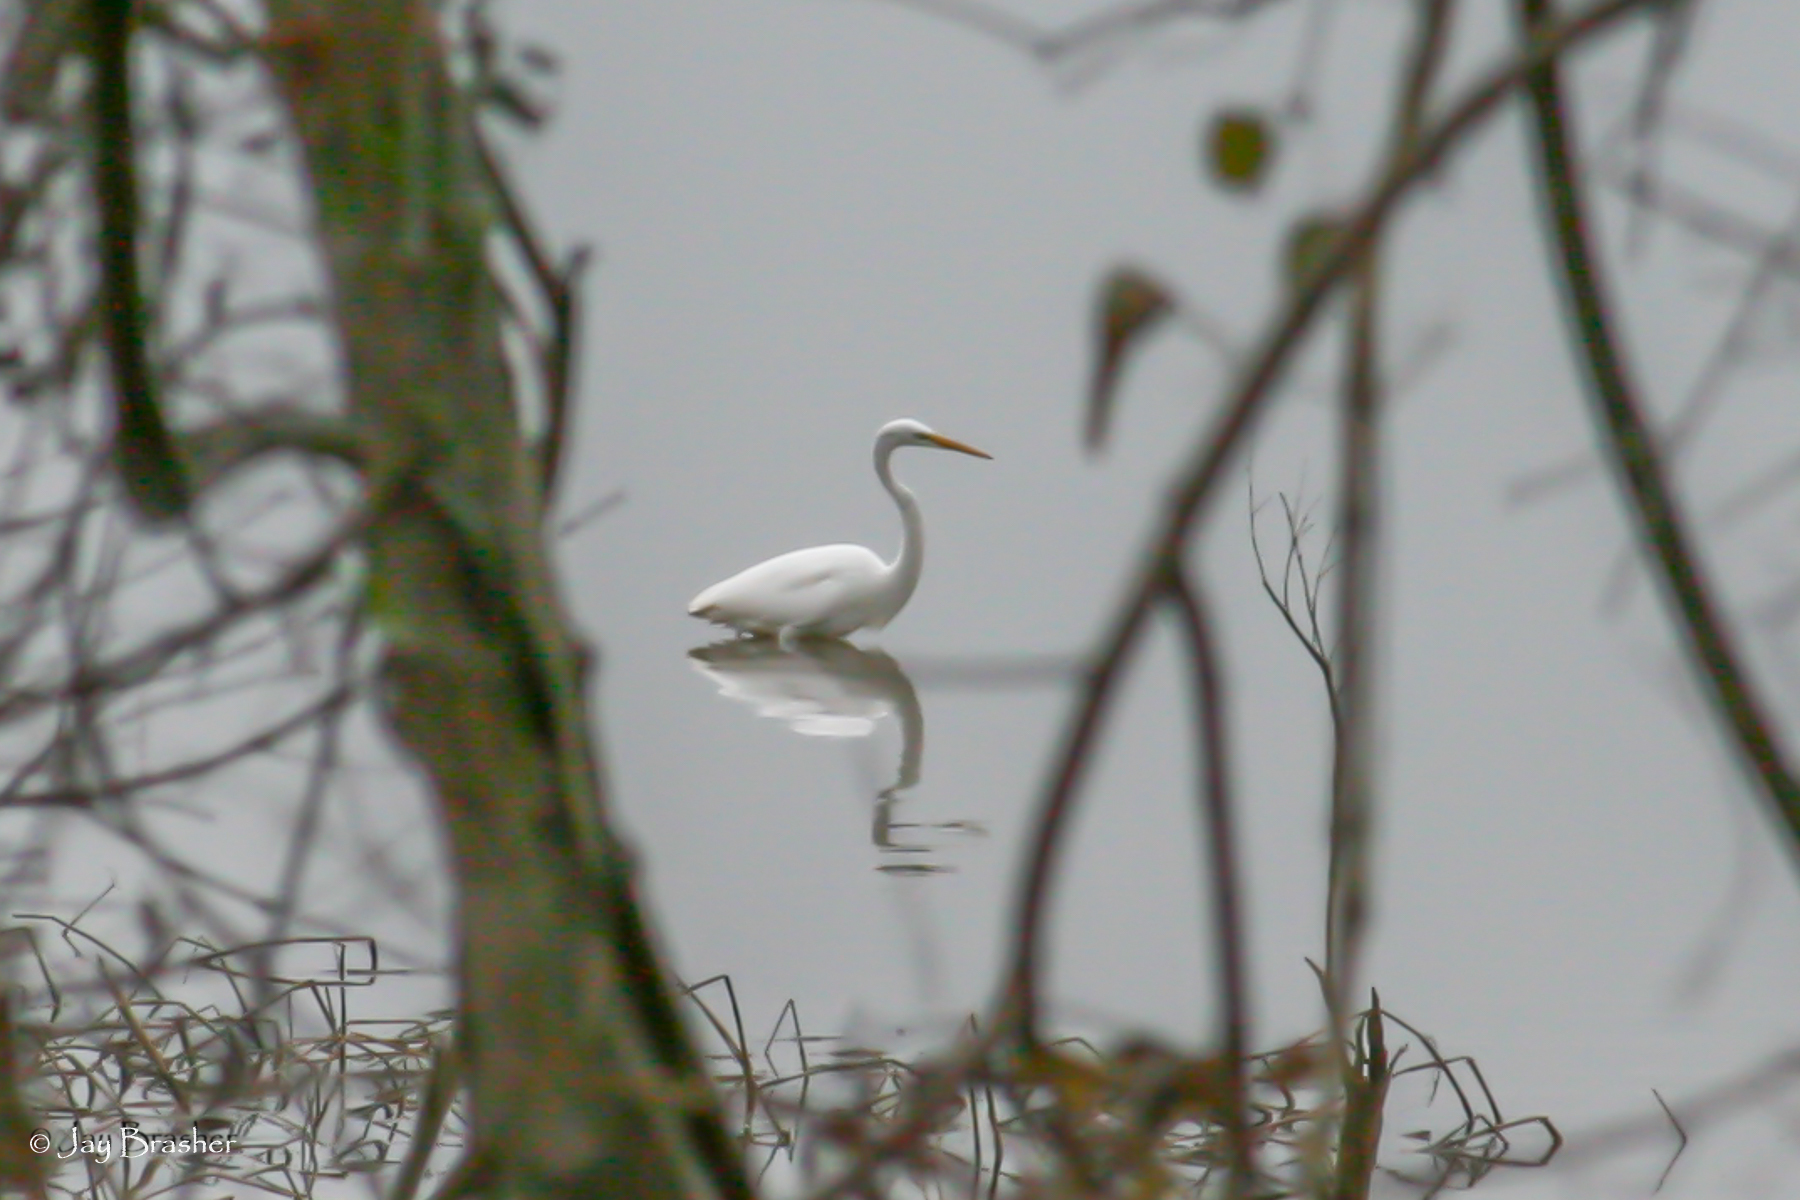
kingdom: Animalia
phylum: Chordata
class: Aves
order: Pelecaniformes
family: Ardeidae
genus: Ardea
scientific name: Ardea alba
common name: Great egret
